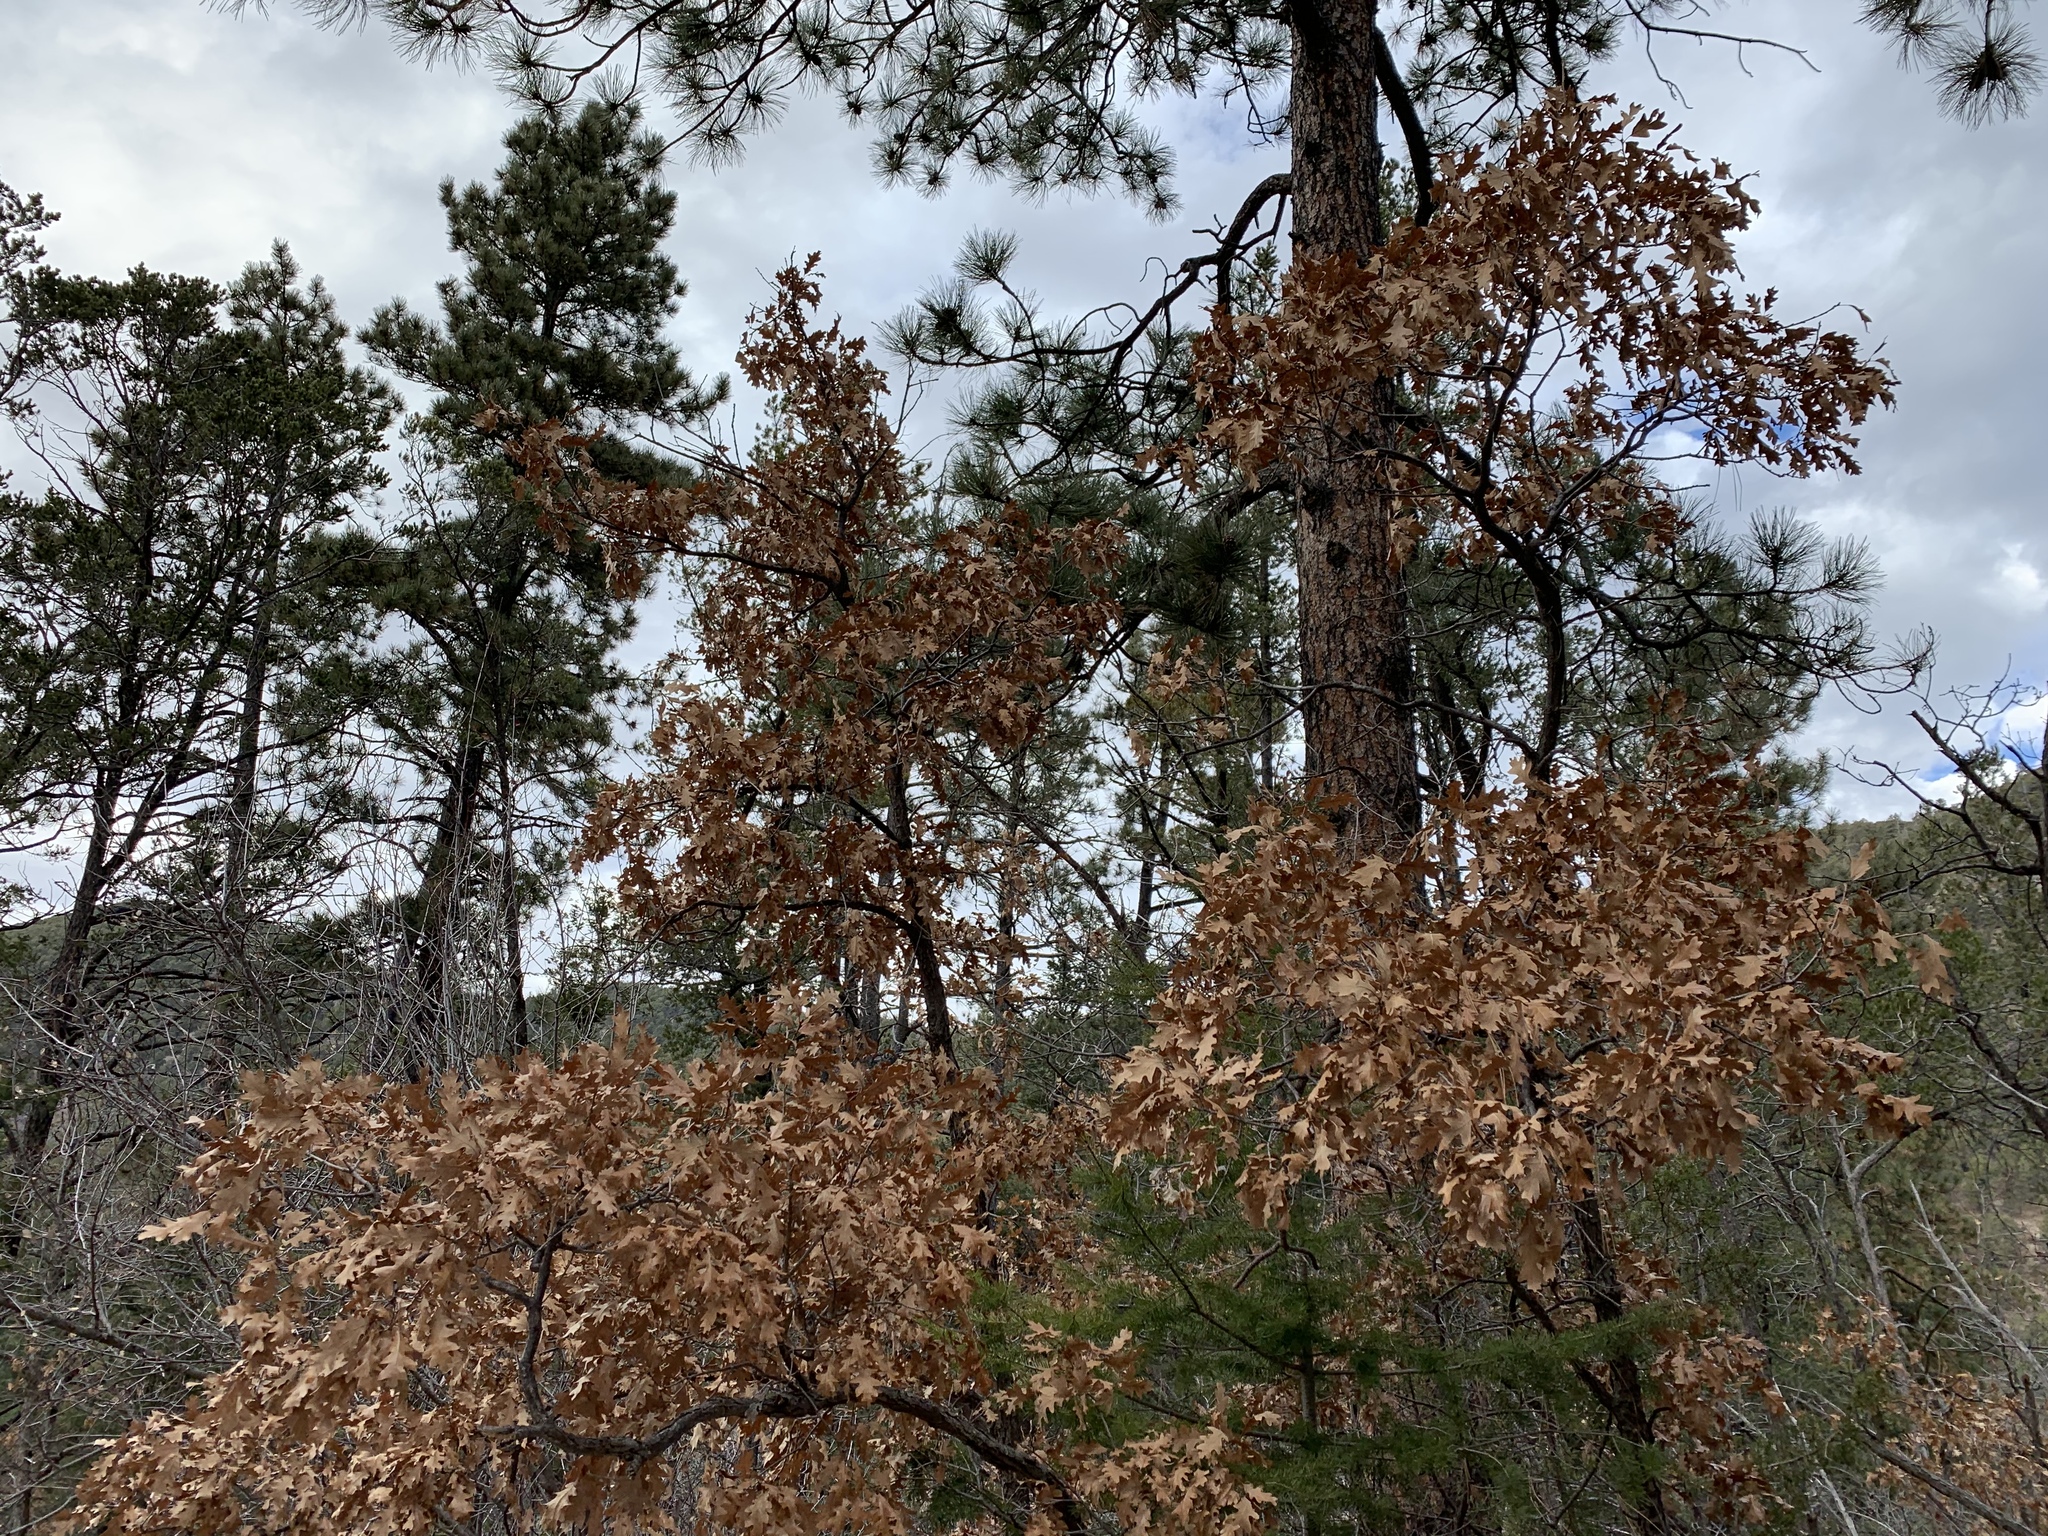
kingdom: Plantae
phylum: Tracheophyta
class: Magnoliopsida
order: Fagales
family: Fagaceae
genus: Quercus
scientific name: Quercus gambelii
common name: Gambel oak
